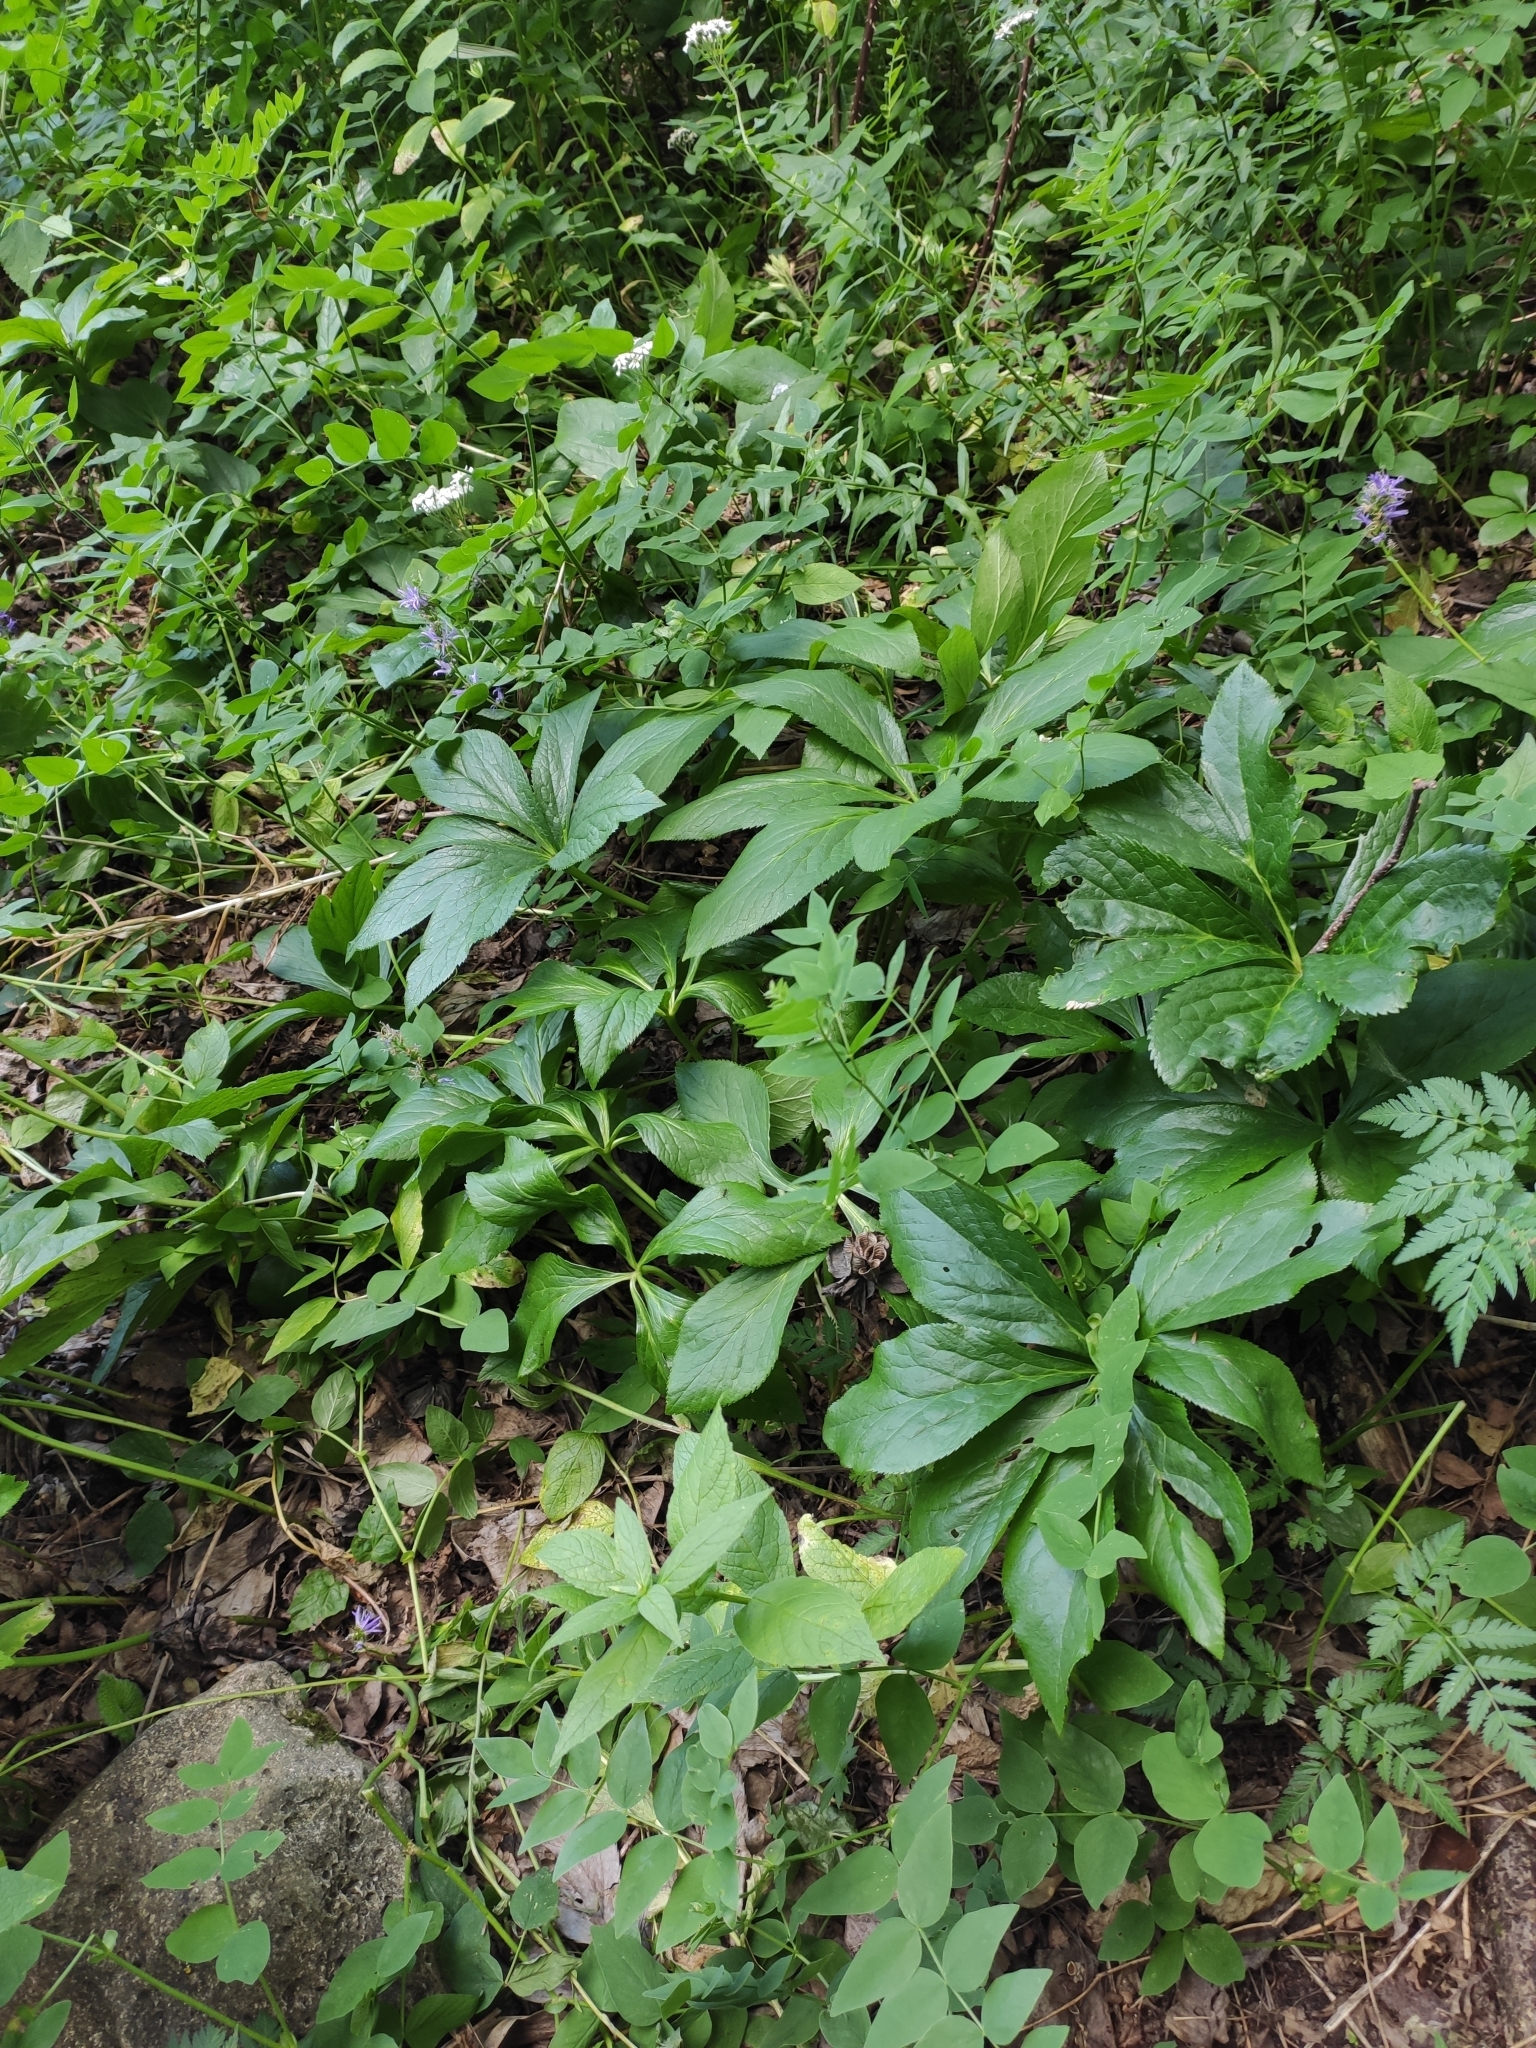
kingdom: Plantae
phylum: Tracheophyta
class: Magnoliopsida
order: Ranunculales
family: Ranunculaceae
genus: Helleborus
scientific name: Helleborus orientalis
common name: Lenten-rose
